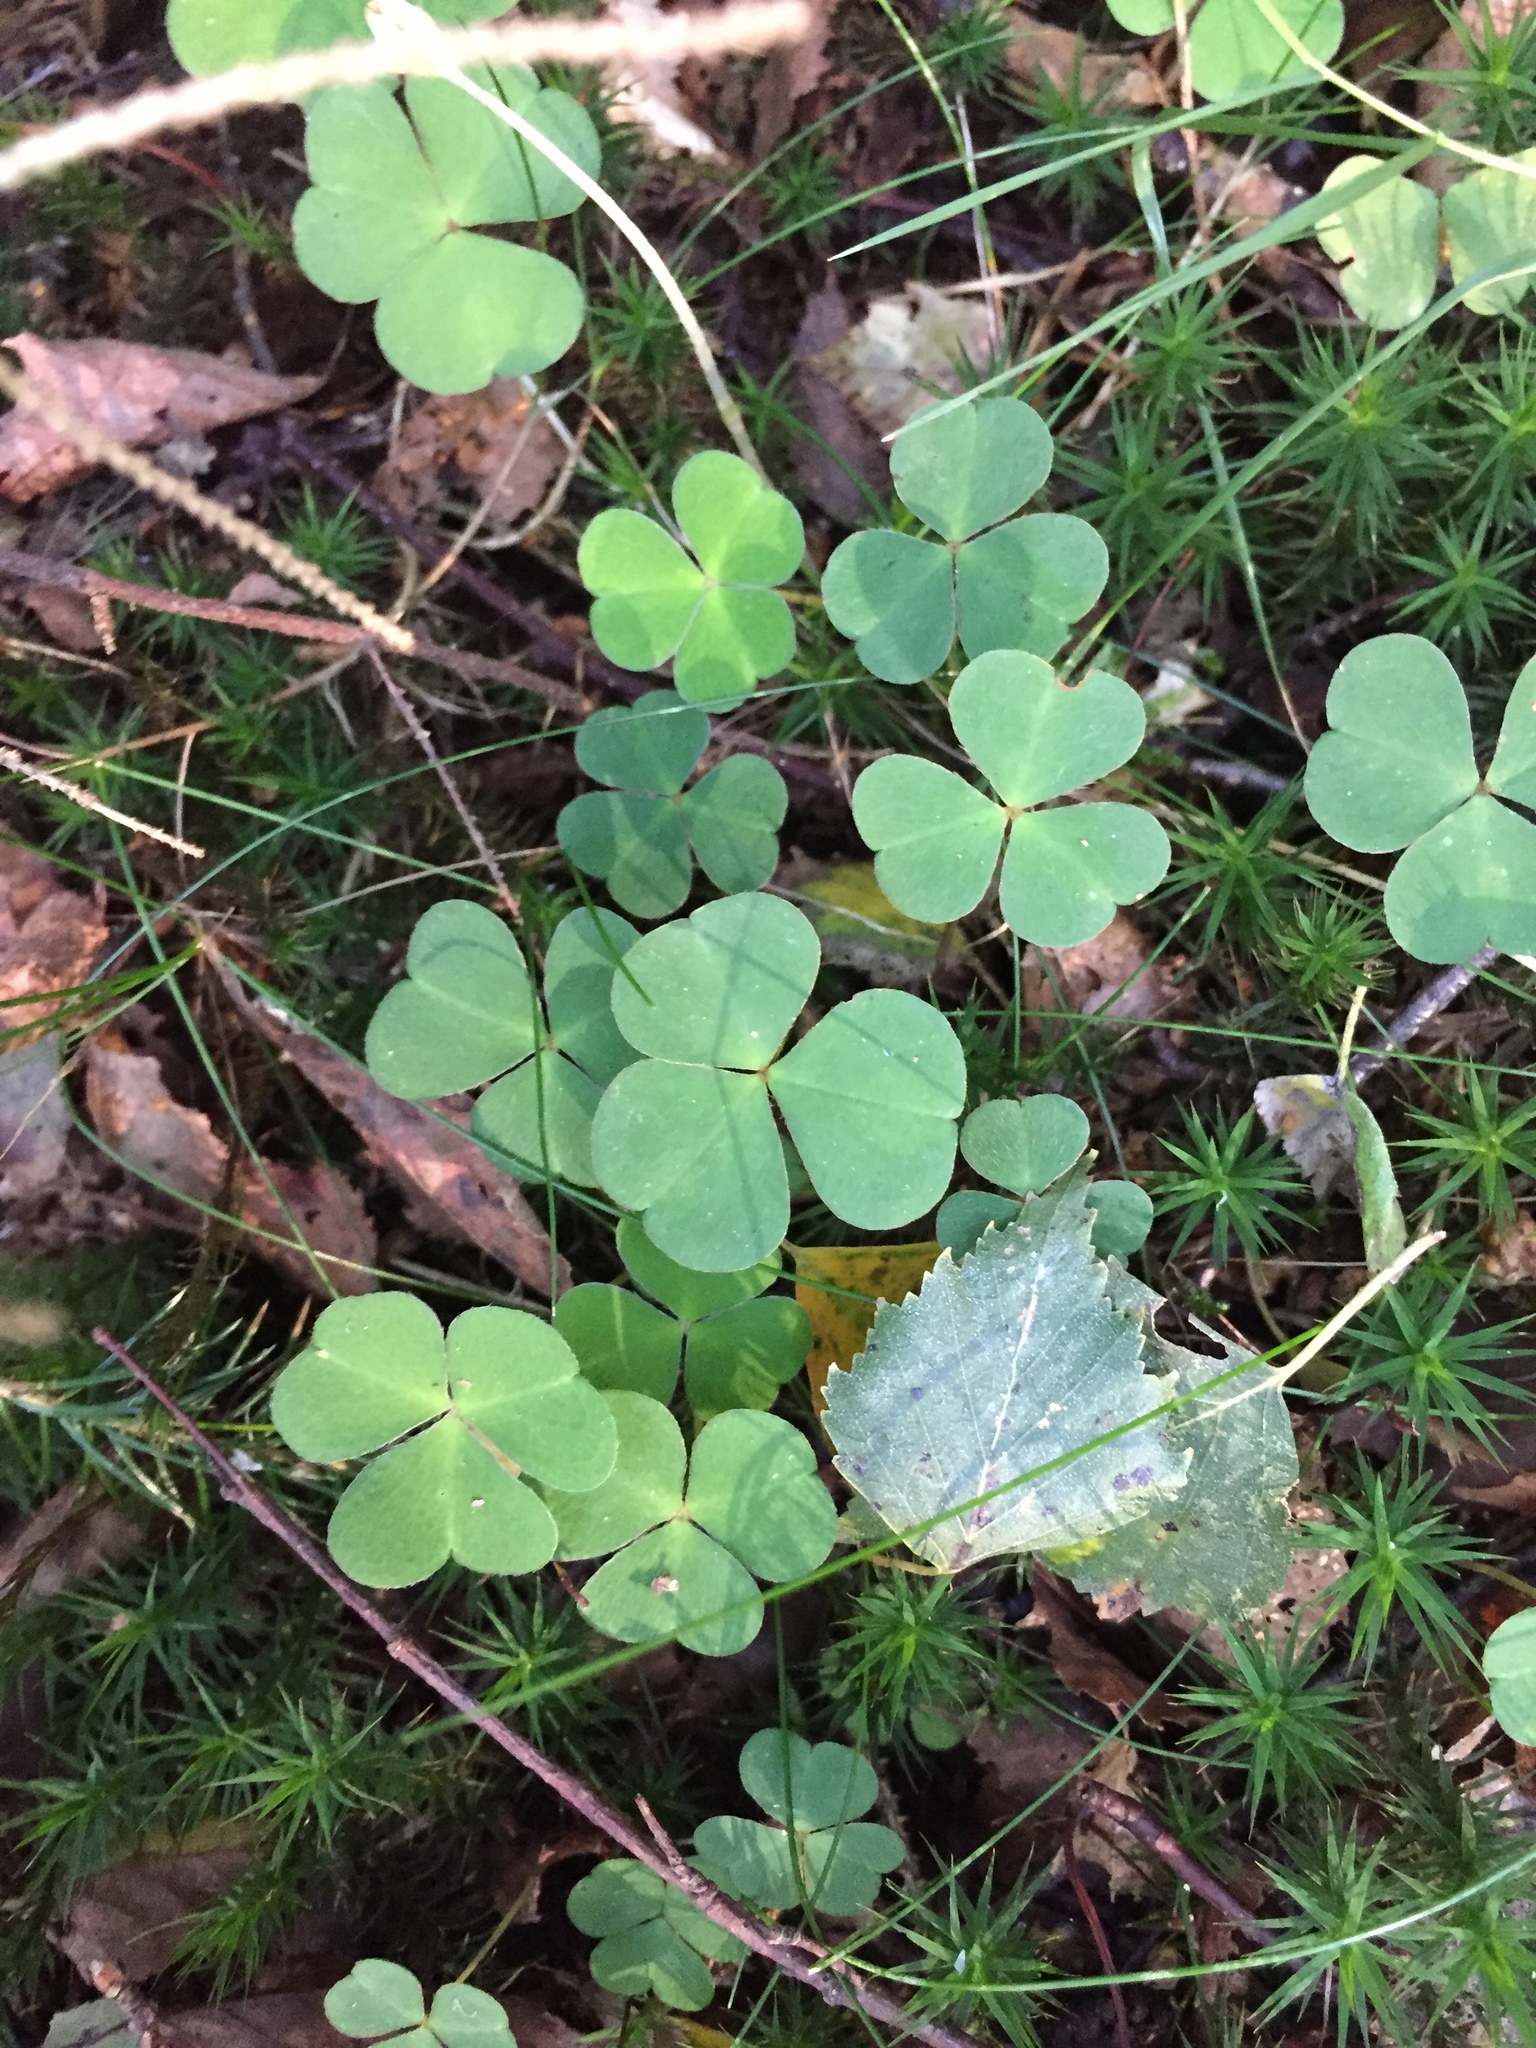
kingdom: Plantae
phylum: Tracheophyta
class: Magnoliopsida
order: Oxalidales
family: Oxalidaceae
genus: Oxalis
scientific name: Oxalis acetosella
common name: Wood-sorrel
